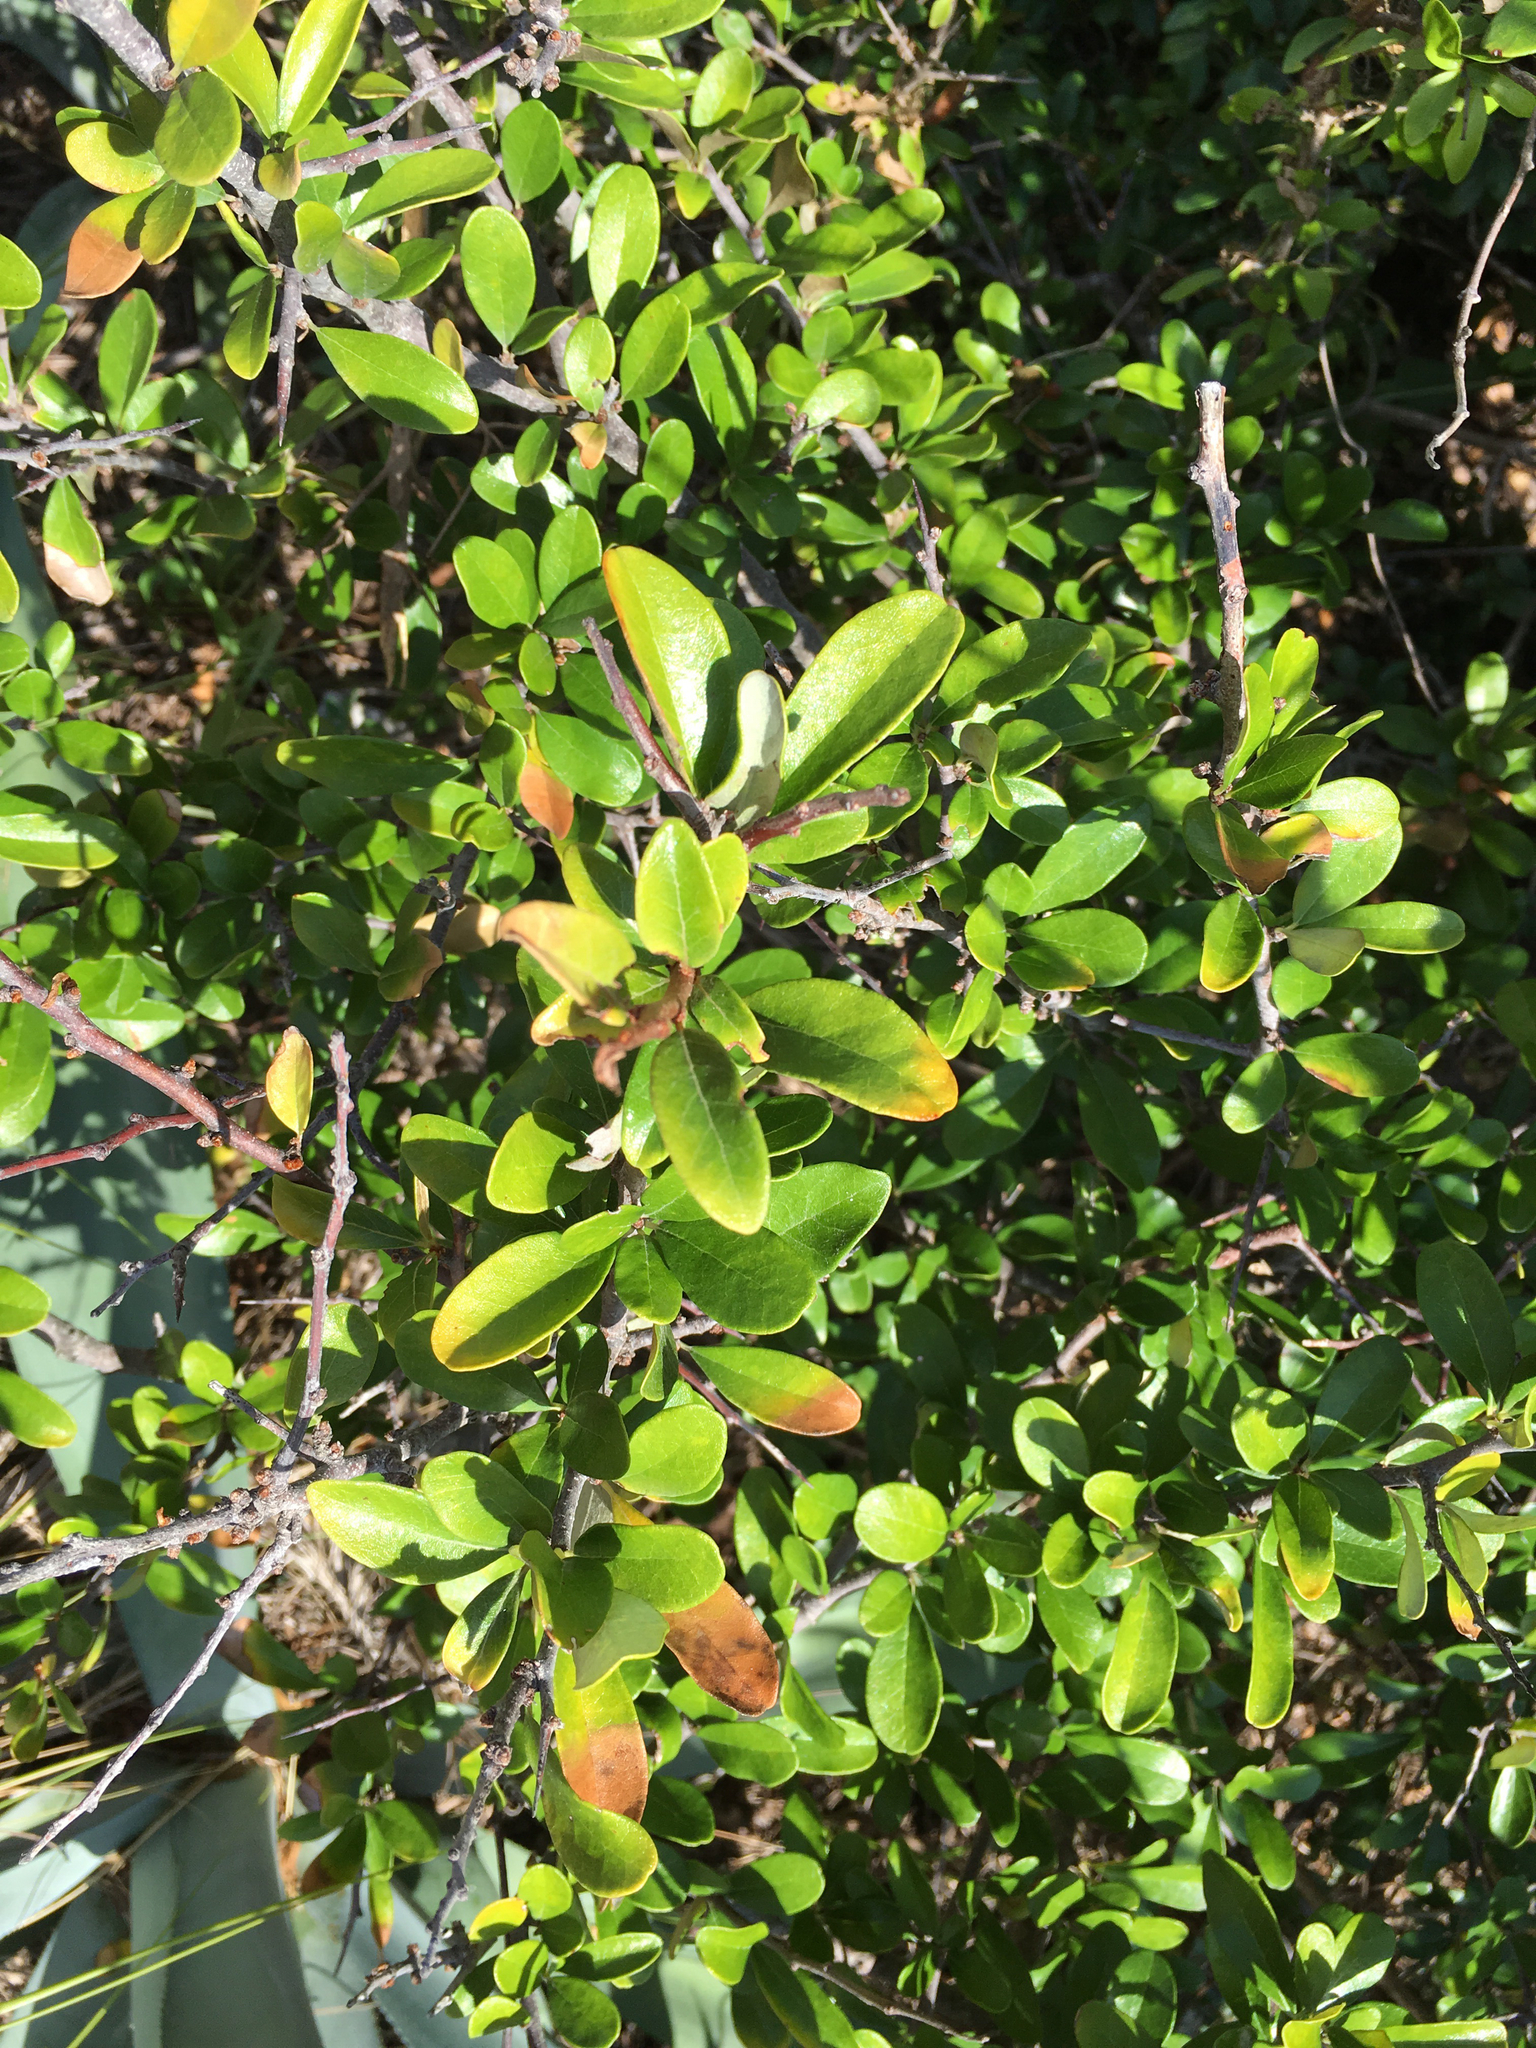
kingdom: Plantae
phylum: Tracheophyta
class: Magnoliopsida
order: Ericales
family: Sapotaceae
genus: Sideroxylon
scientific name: Sideroxylon tenax
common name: Tough-buckthorn
